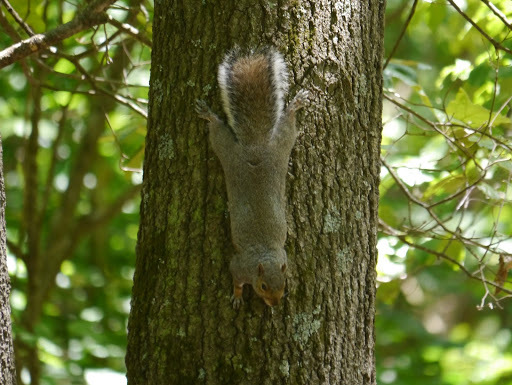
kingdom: Animalia
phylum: Chordata
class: Mammalia
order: Rodentia
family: Sciuridae
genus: Sciurus
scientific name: Sciurus carolinensis
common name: Eastern gray squirrel
